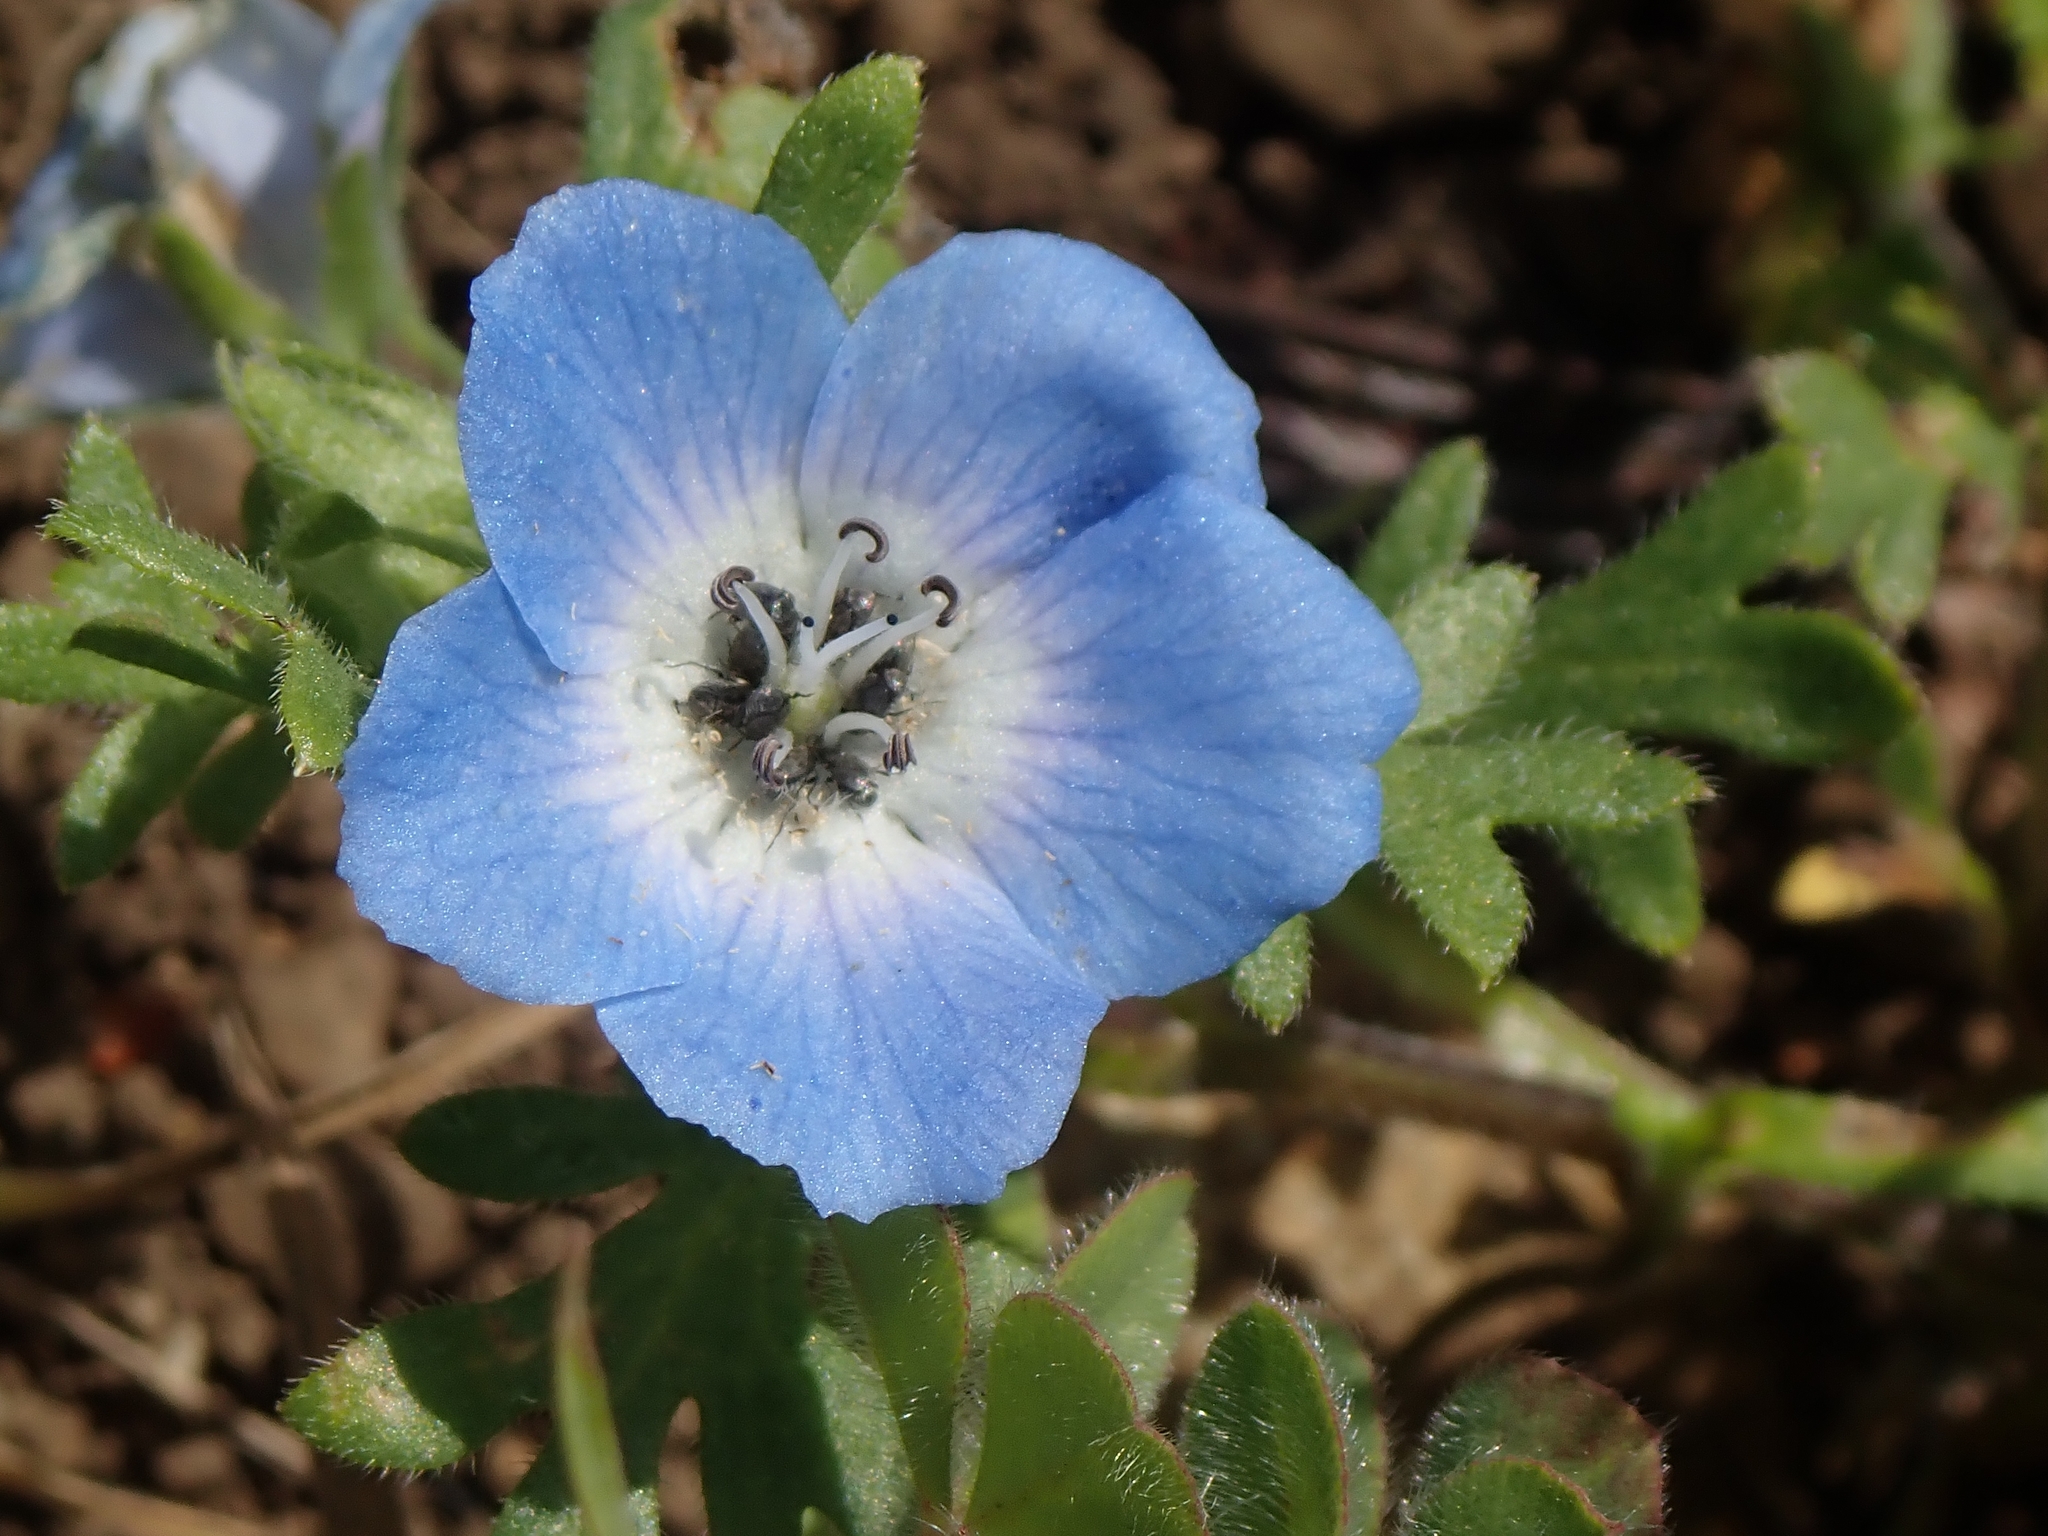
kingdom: Plantae
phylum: Tracheophyta
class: Magnoliopsida
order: Boraginales
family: Hydrophyllaceae
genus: Nemophila
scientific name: Nemophila menziesii
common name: Baby's-blue-eyes
